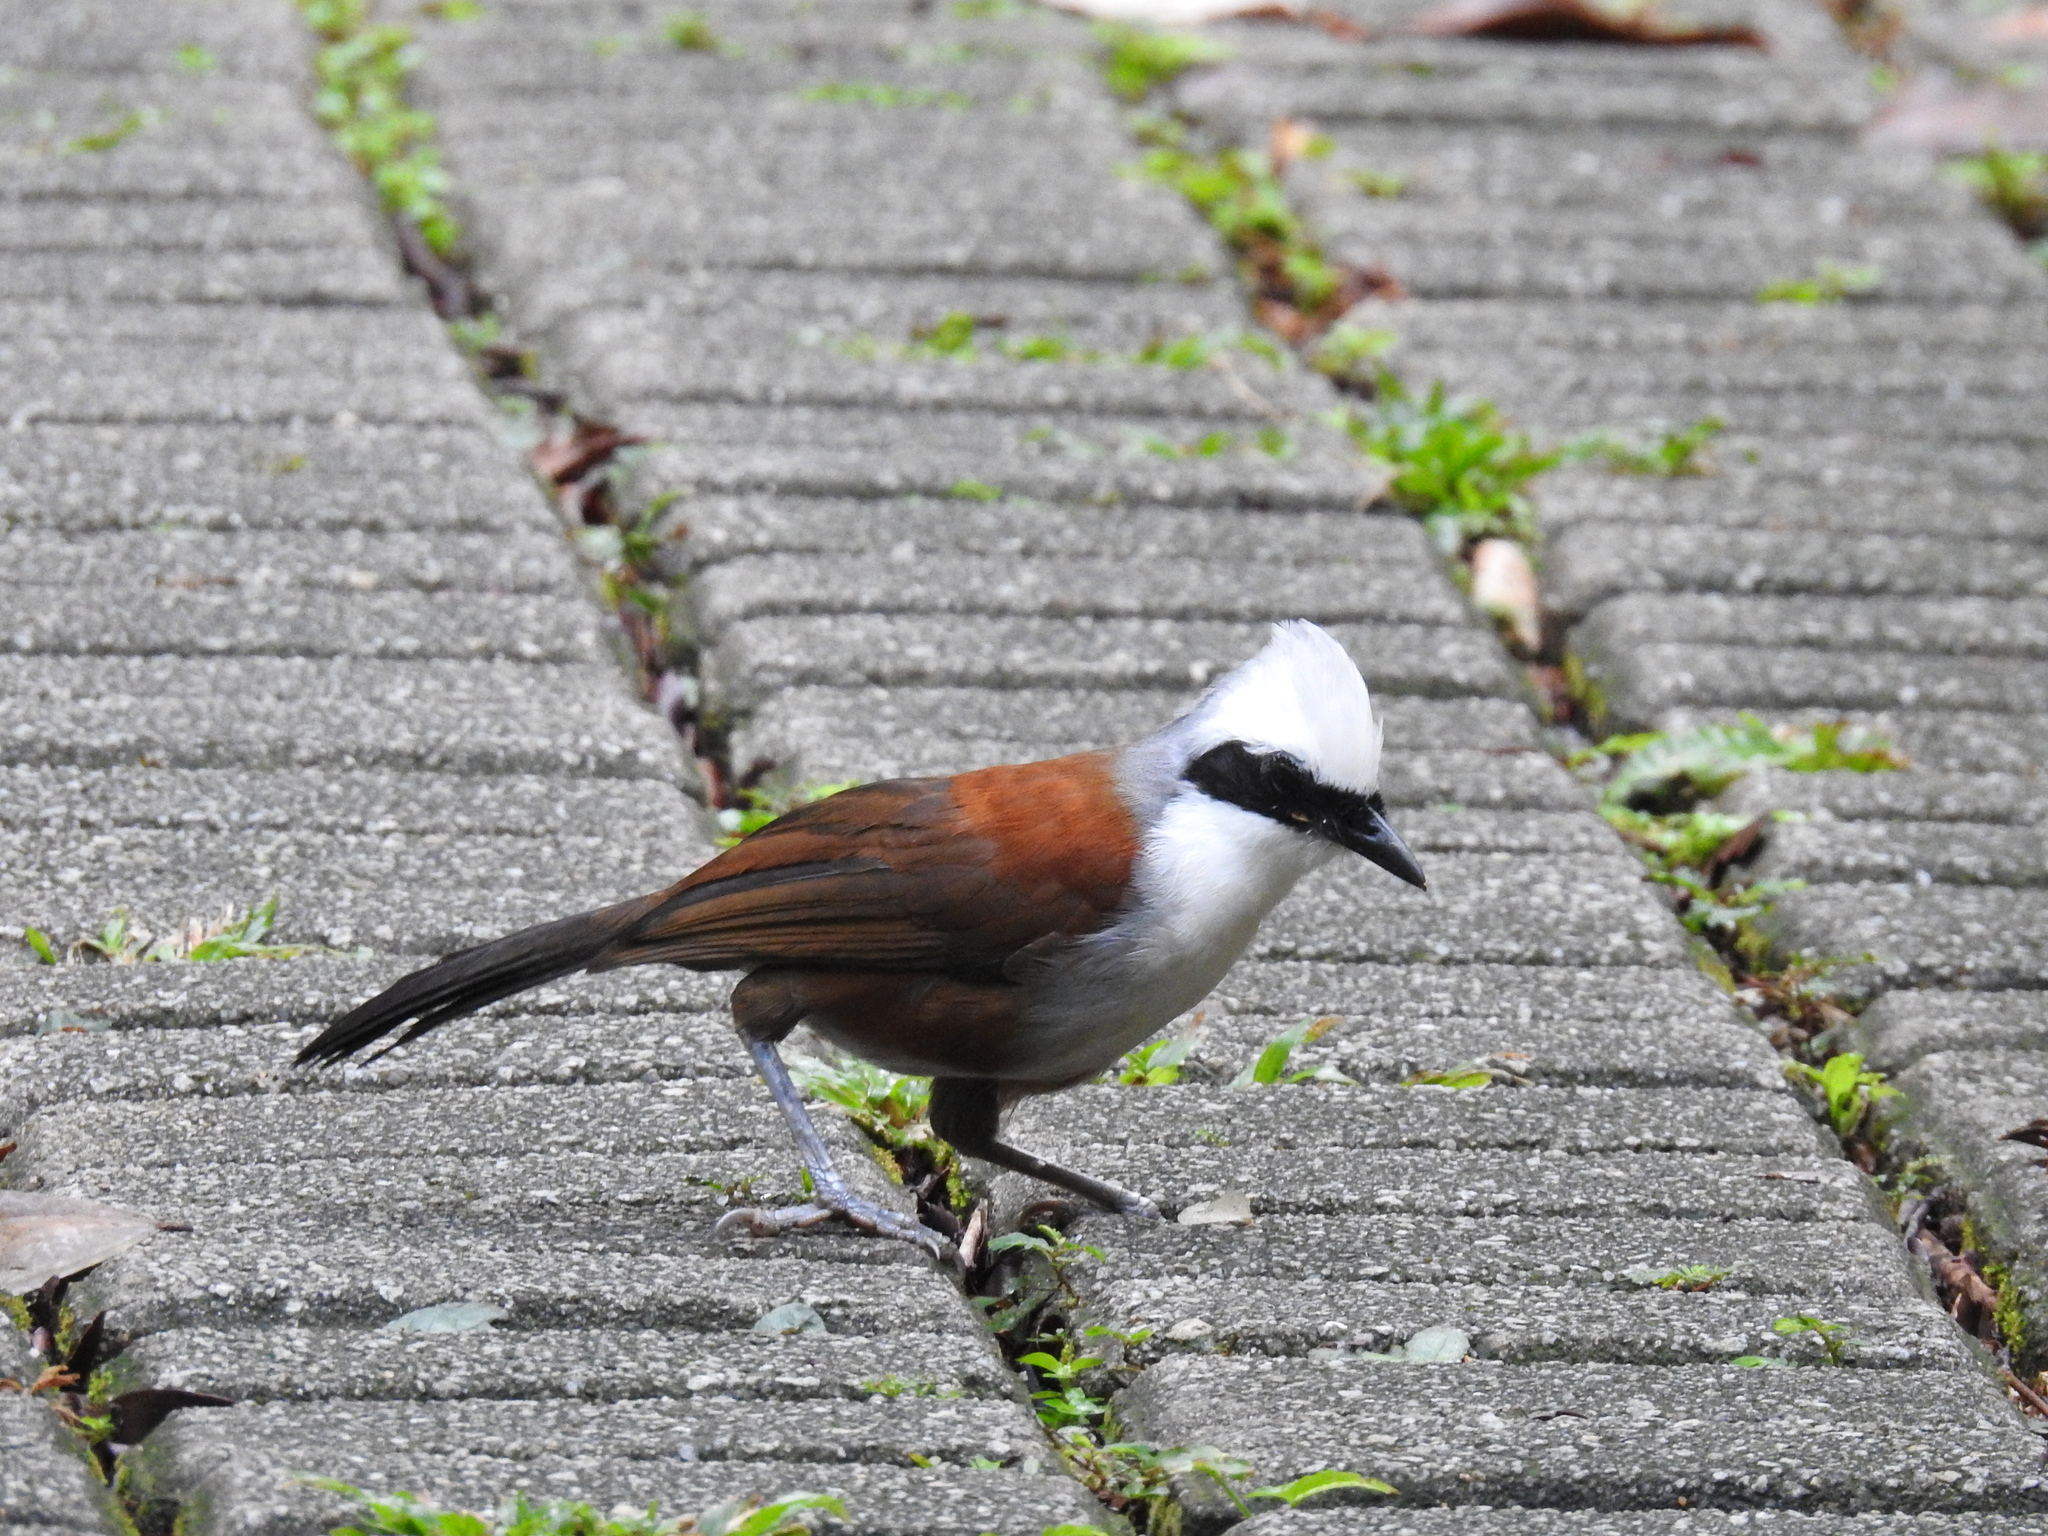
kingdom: Animalia
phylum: Chordata
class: Aves
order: Passeriformes
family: Leiothrichidae
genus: Garrulax
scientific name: Garrulax leucolophus
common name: White-crested laughingthrush
